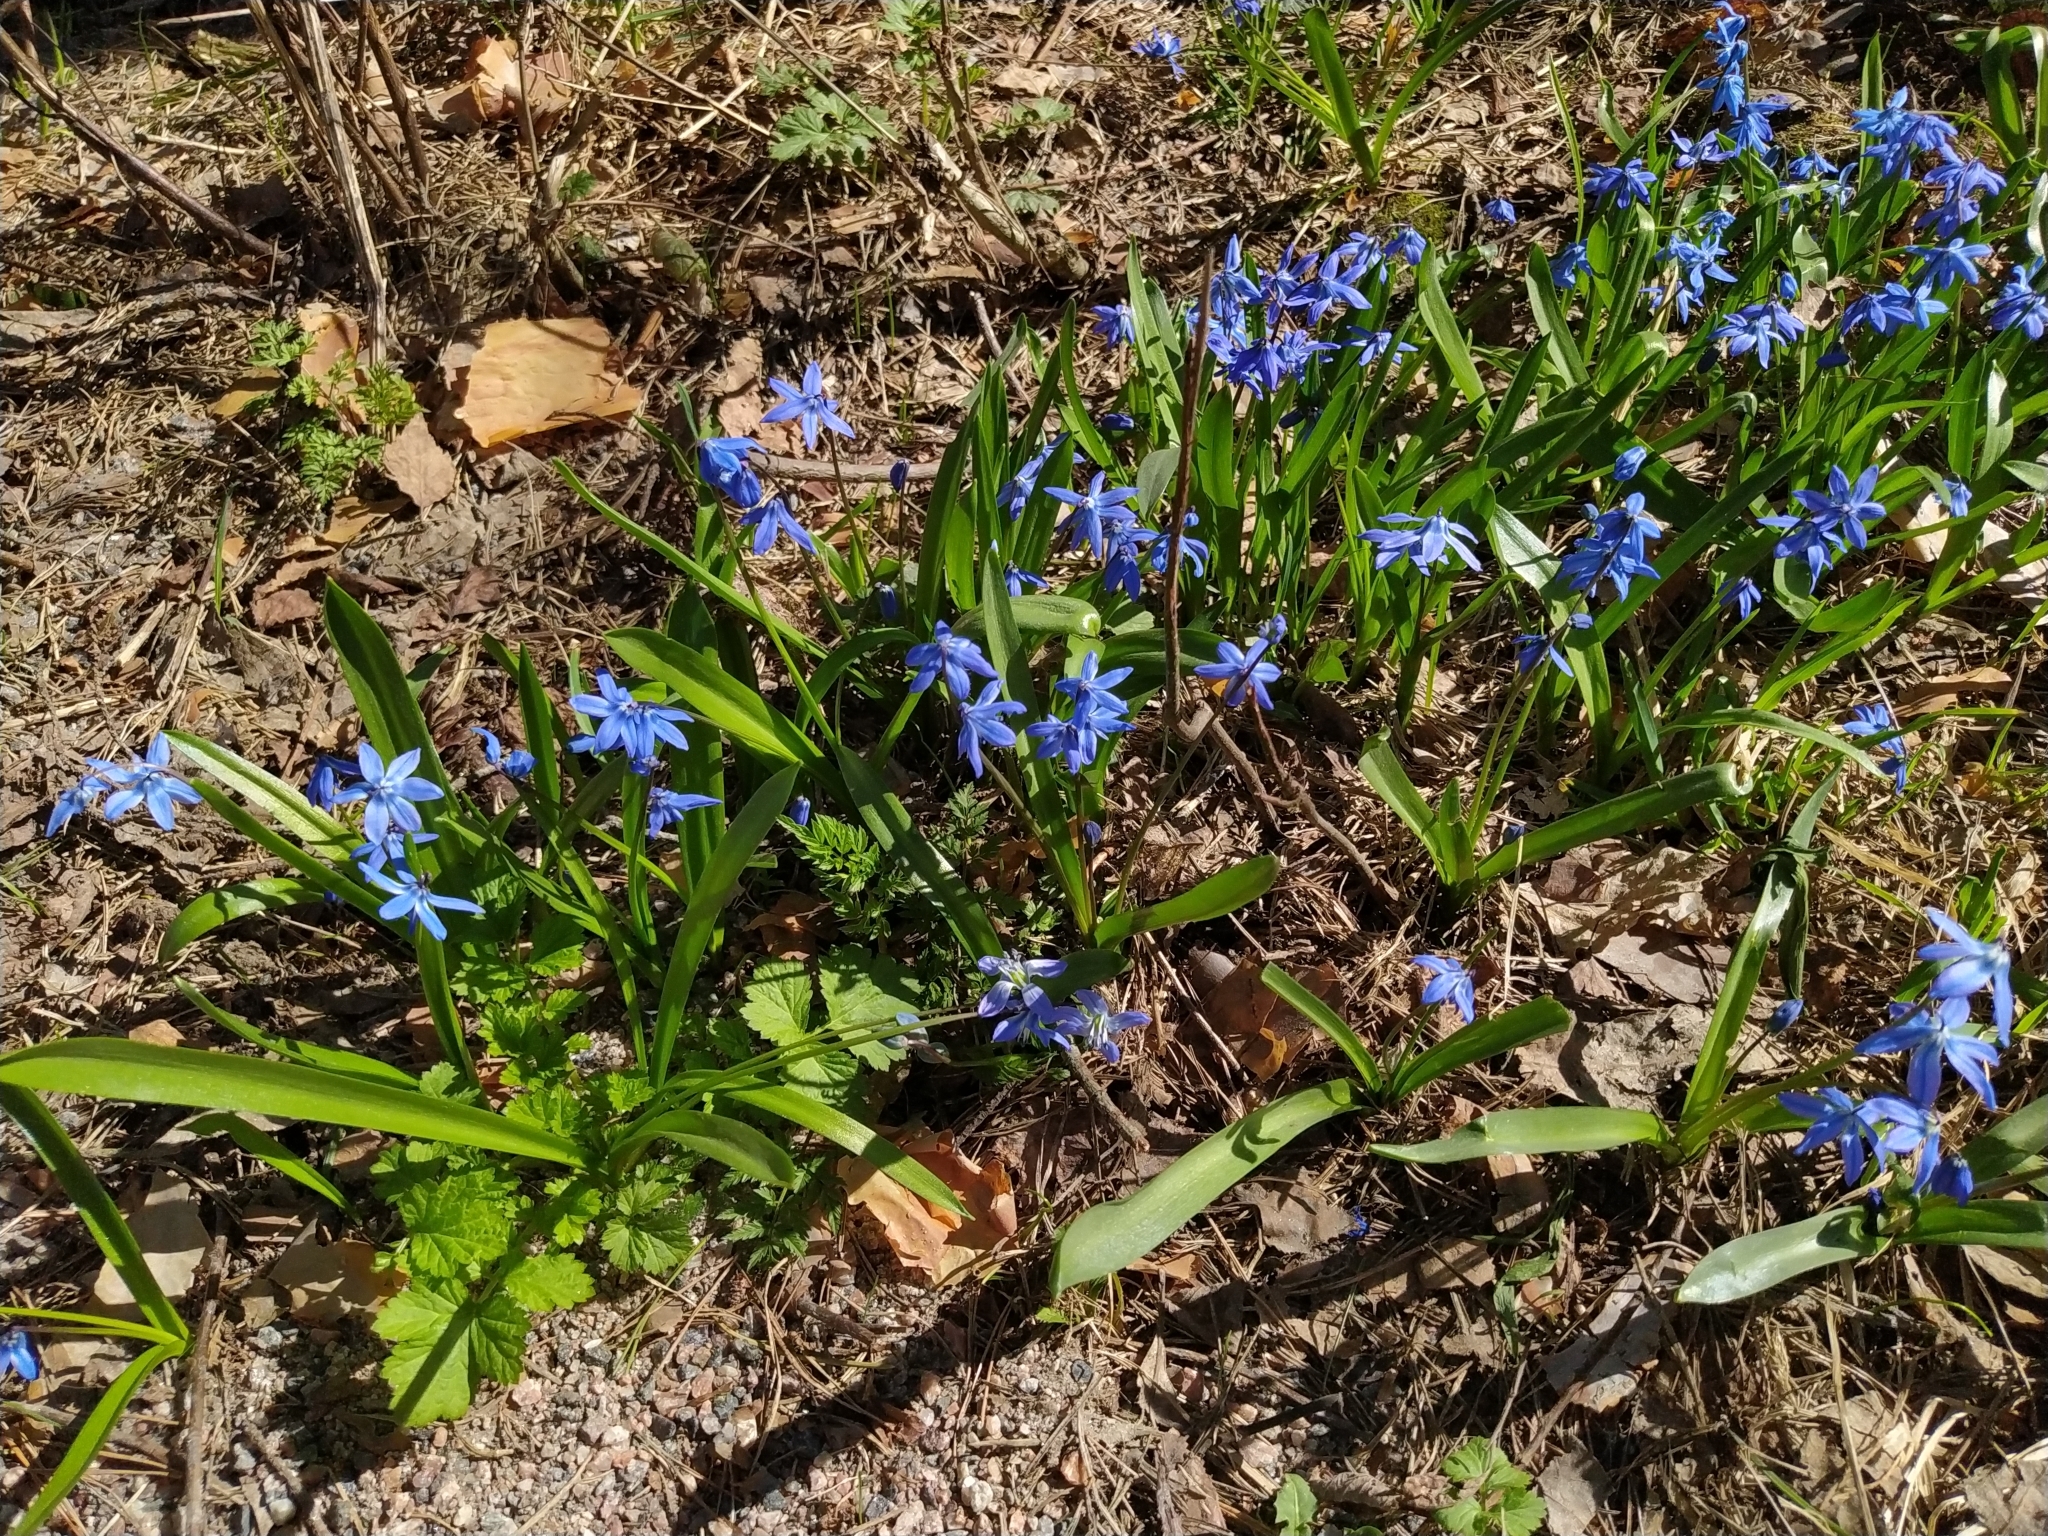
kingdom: Plantae
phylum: Tracheophyta
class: Liliopsida
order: Asparagales
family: Asparagaceae
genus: Scilla
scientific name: Scilla siberica
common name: Siberian squill
